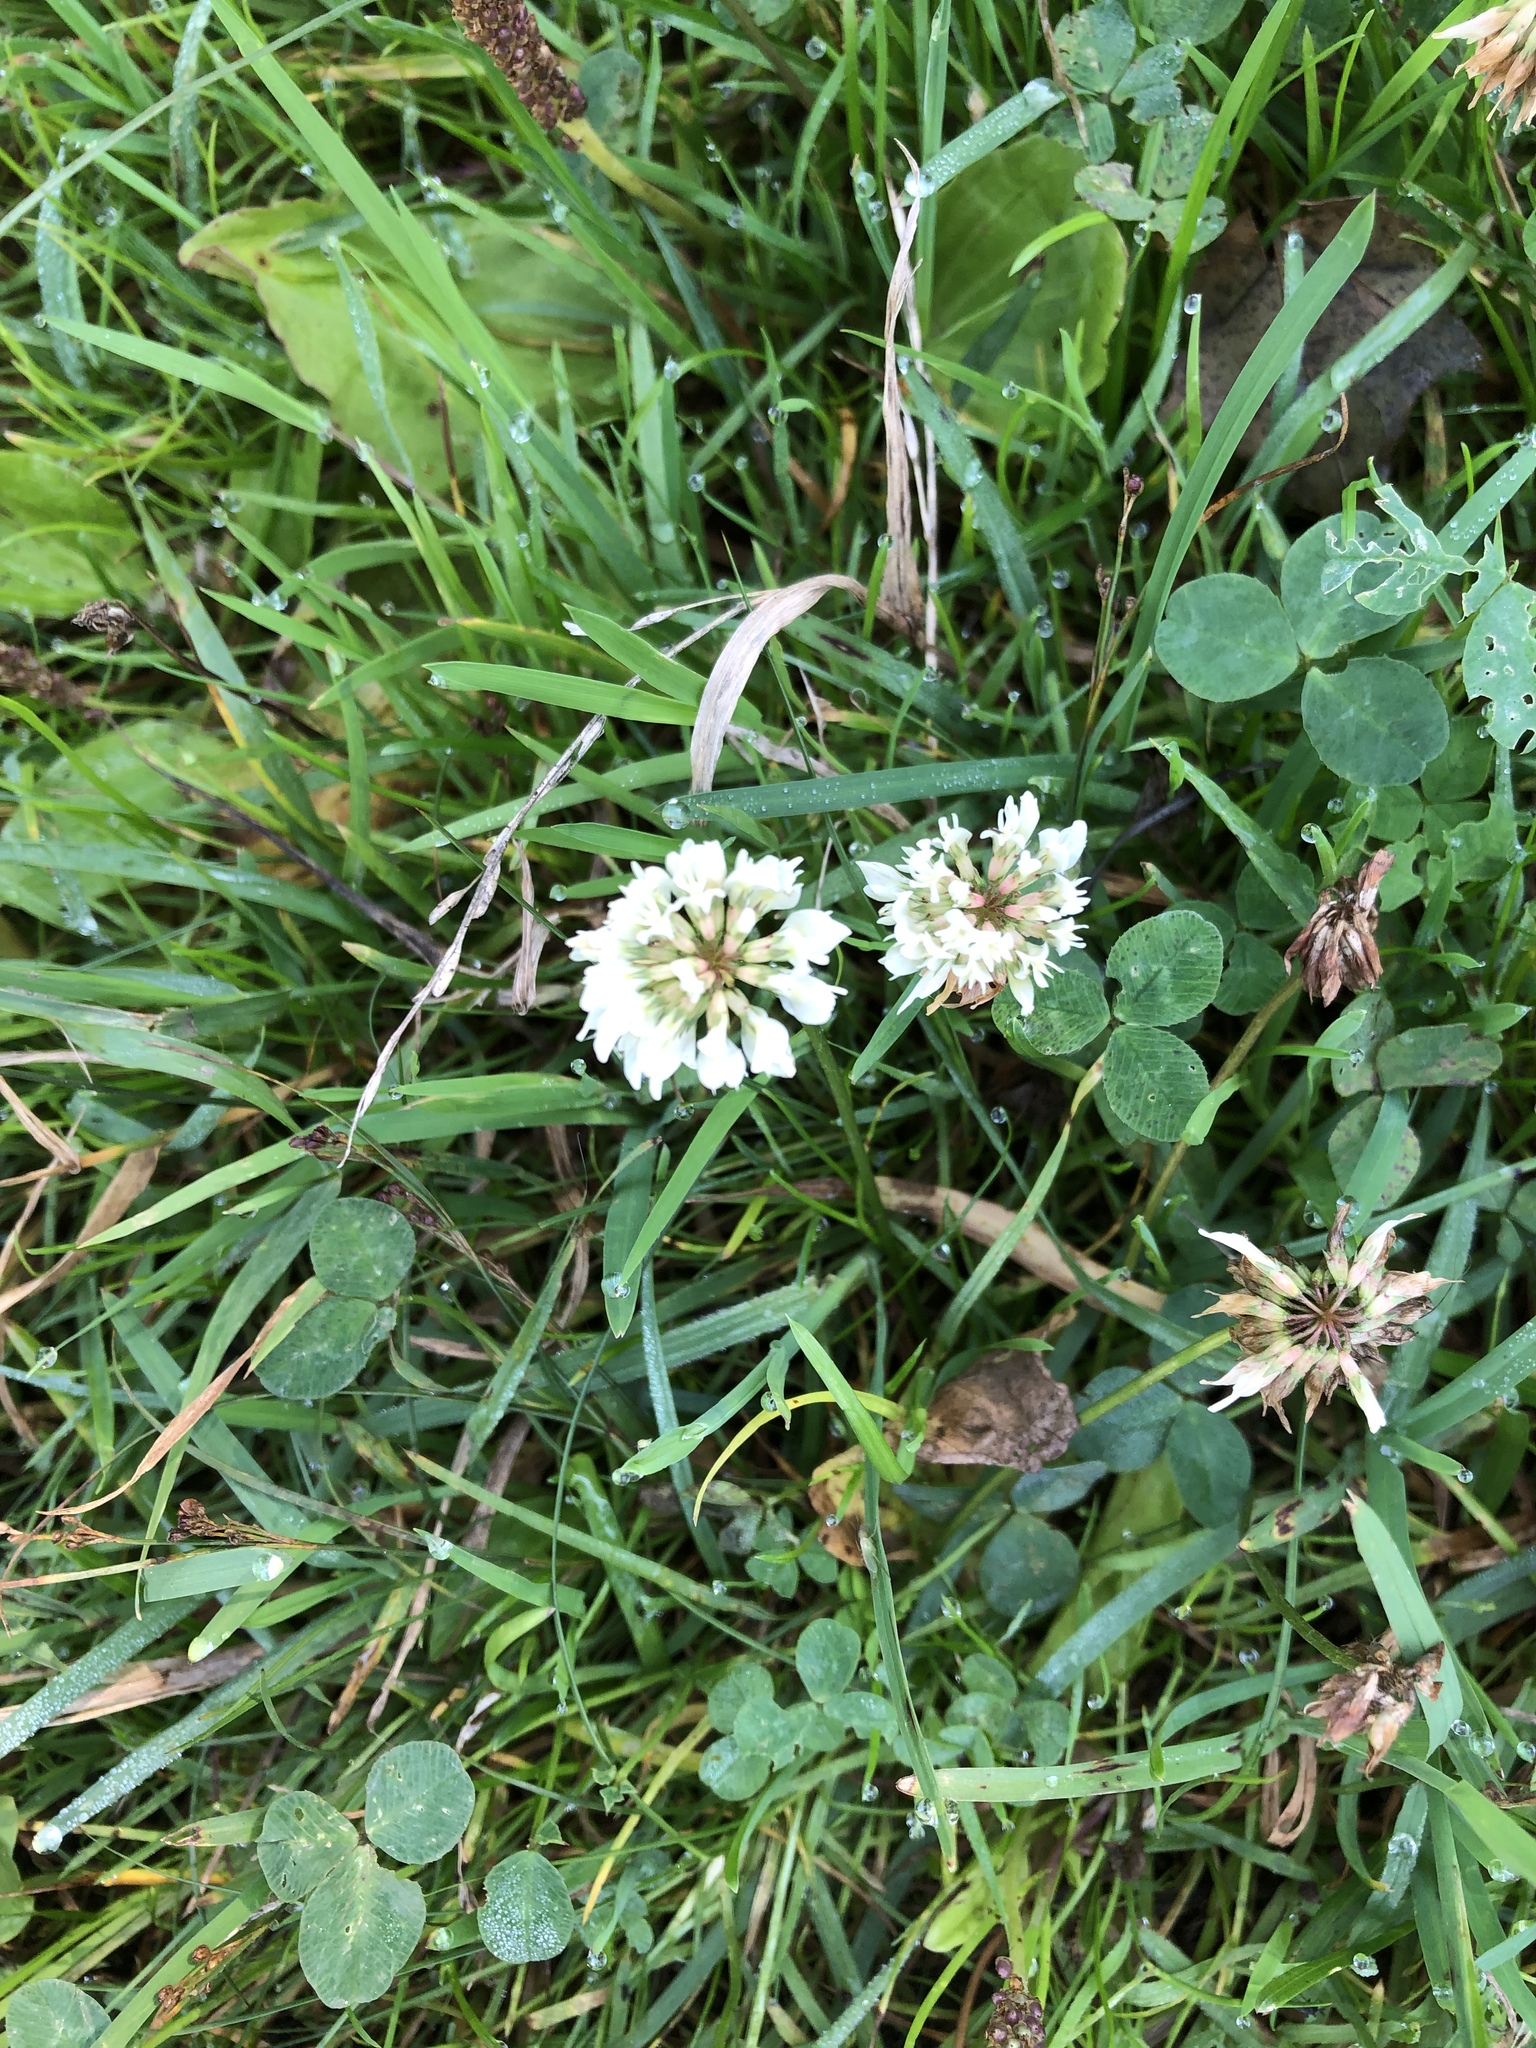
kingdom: Plantae
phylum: Tracheophyta
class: Magnoliopsida
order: Fabales
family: Fabaceae
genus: Trifolium
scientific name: Trifolium repens
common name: White clover
